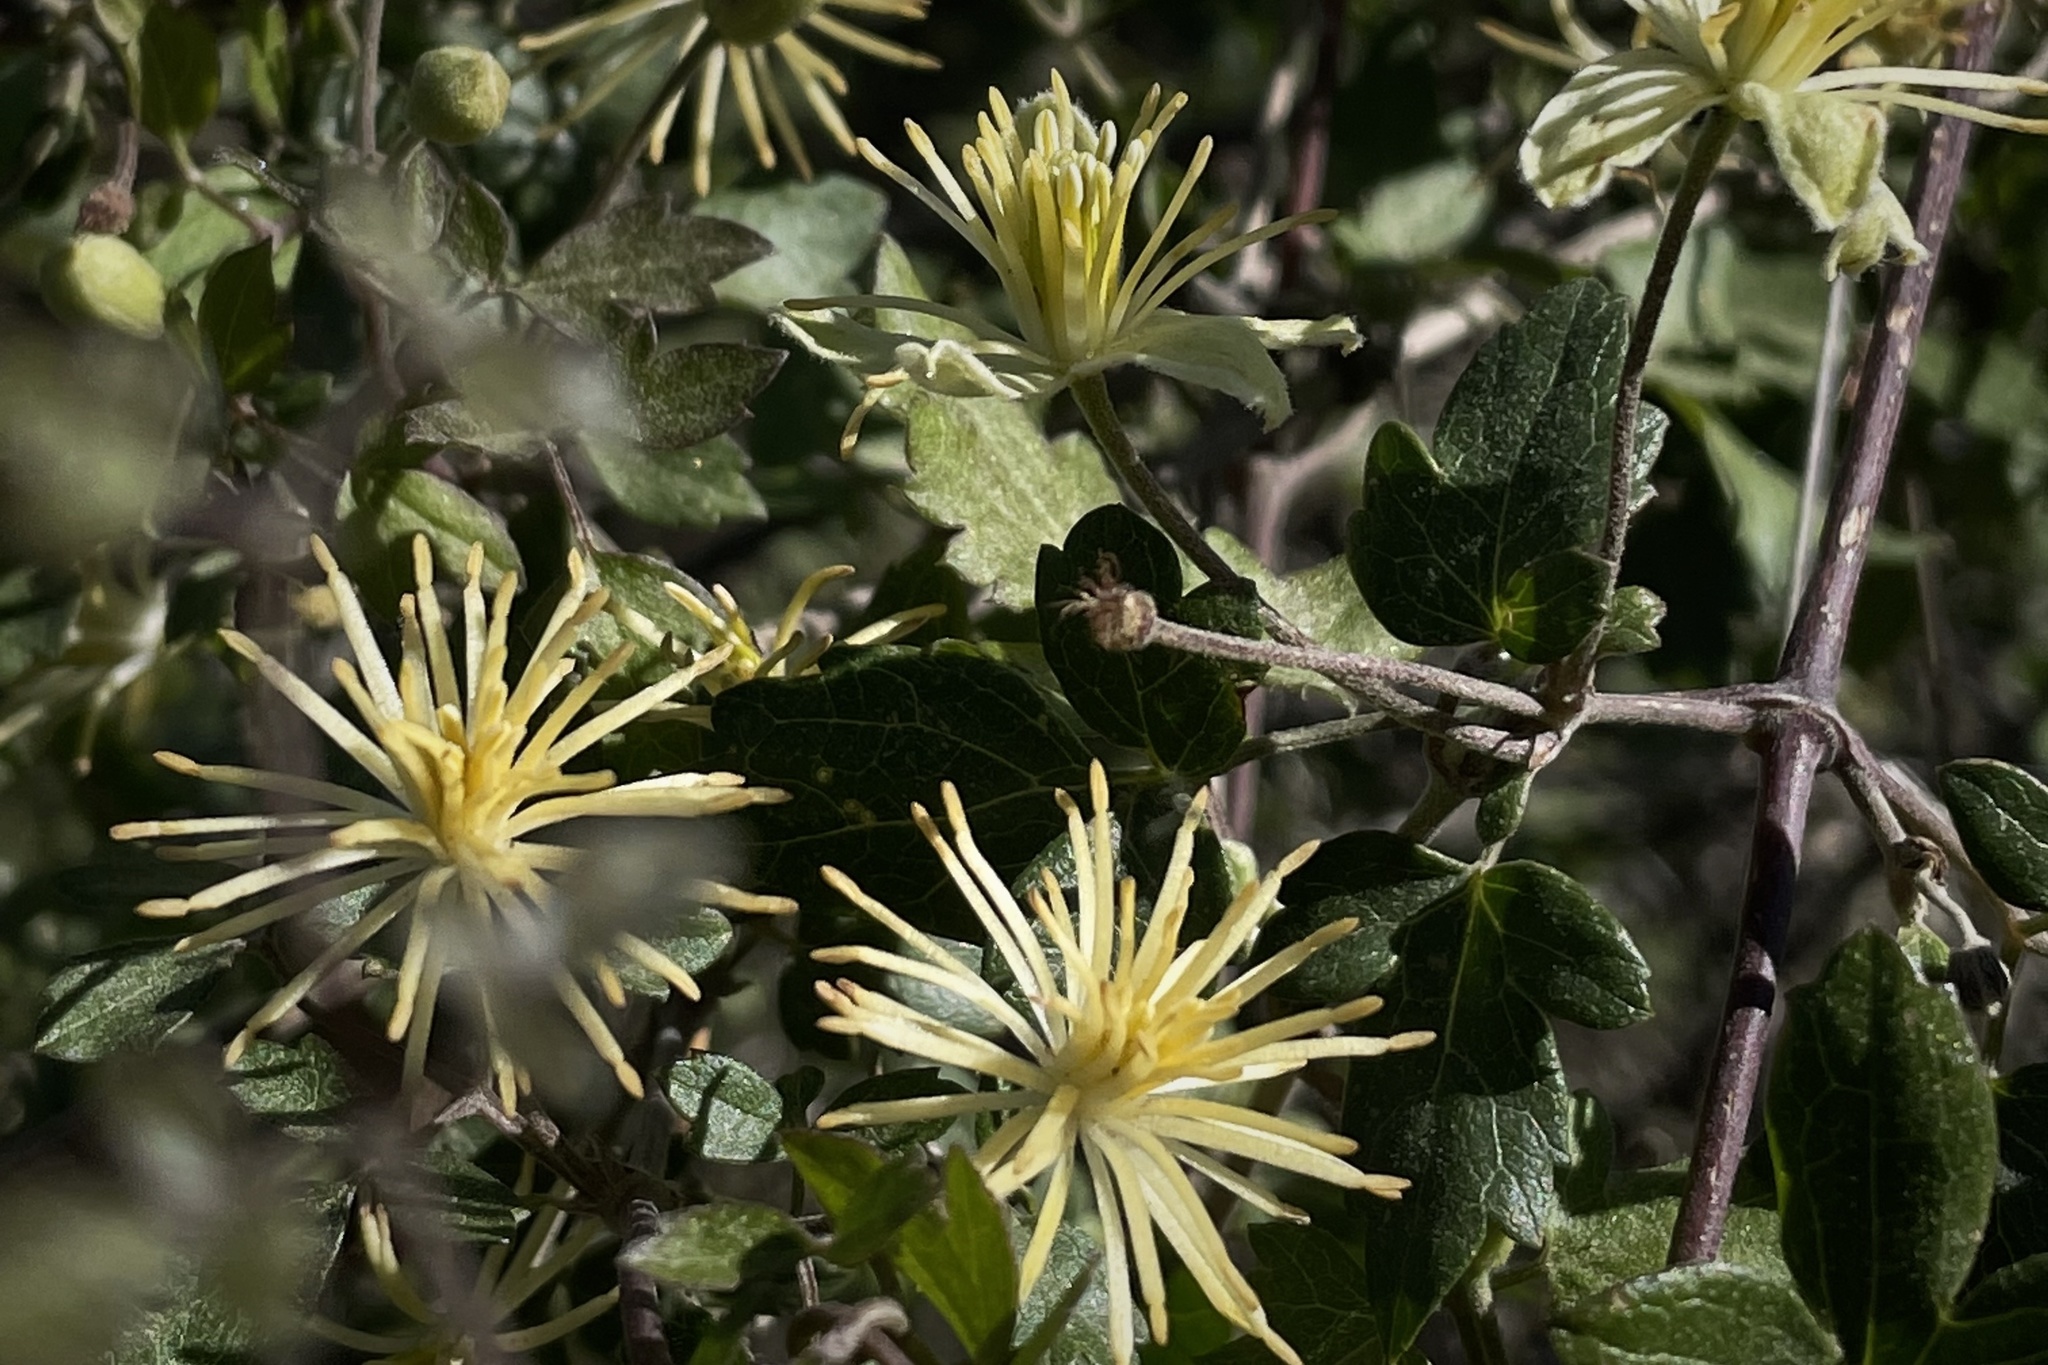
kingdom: Plantae
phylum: Tracheophyta
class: Magnoliopsida
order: Ranunculales
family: Ranunculaceae
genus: Clematis
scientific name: Clematis pauciflora
